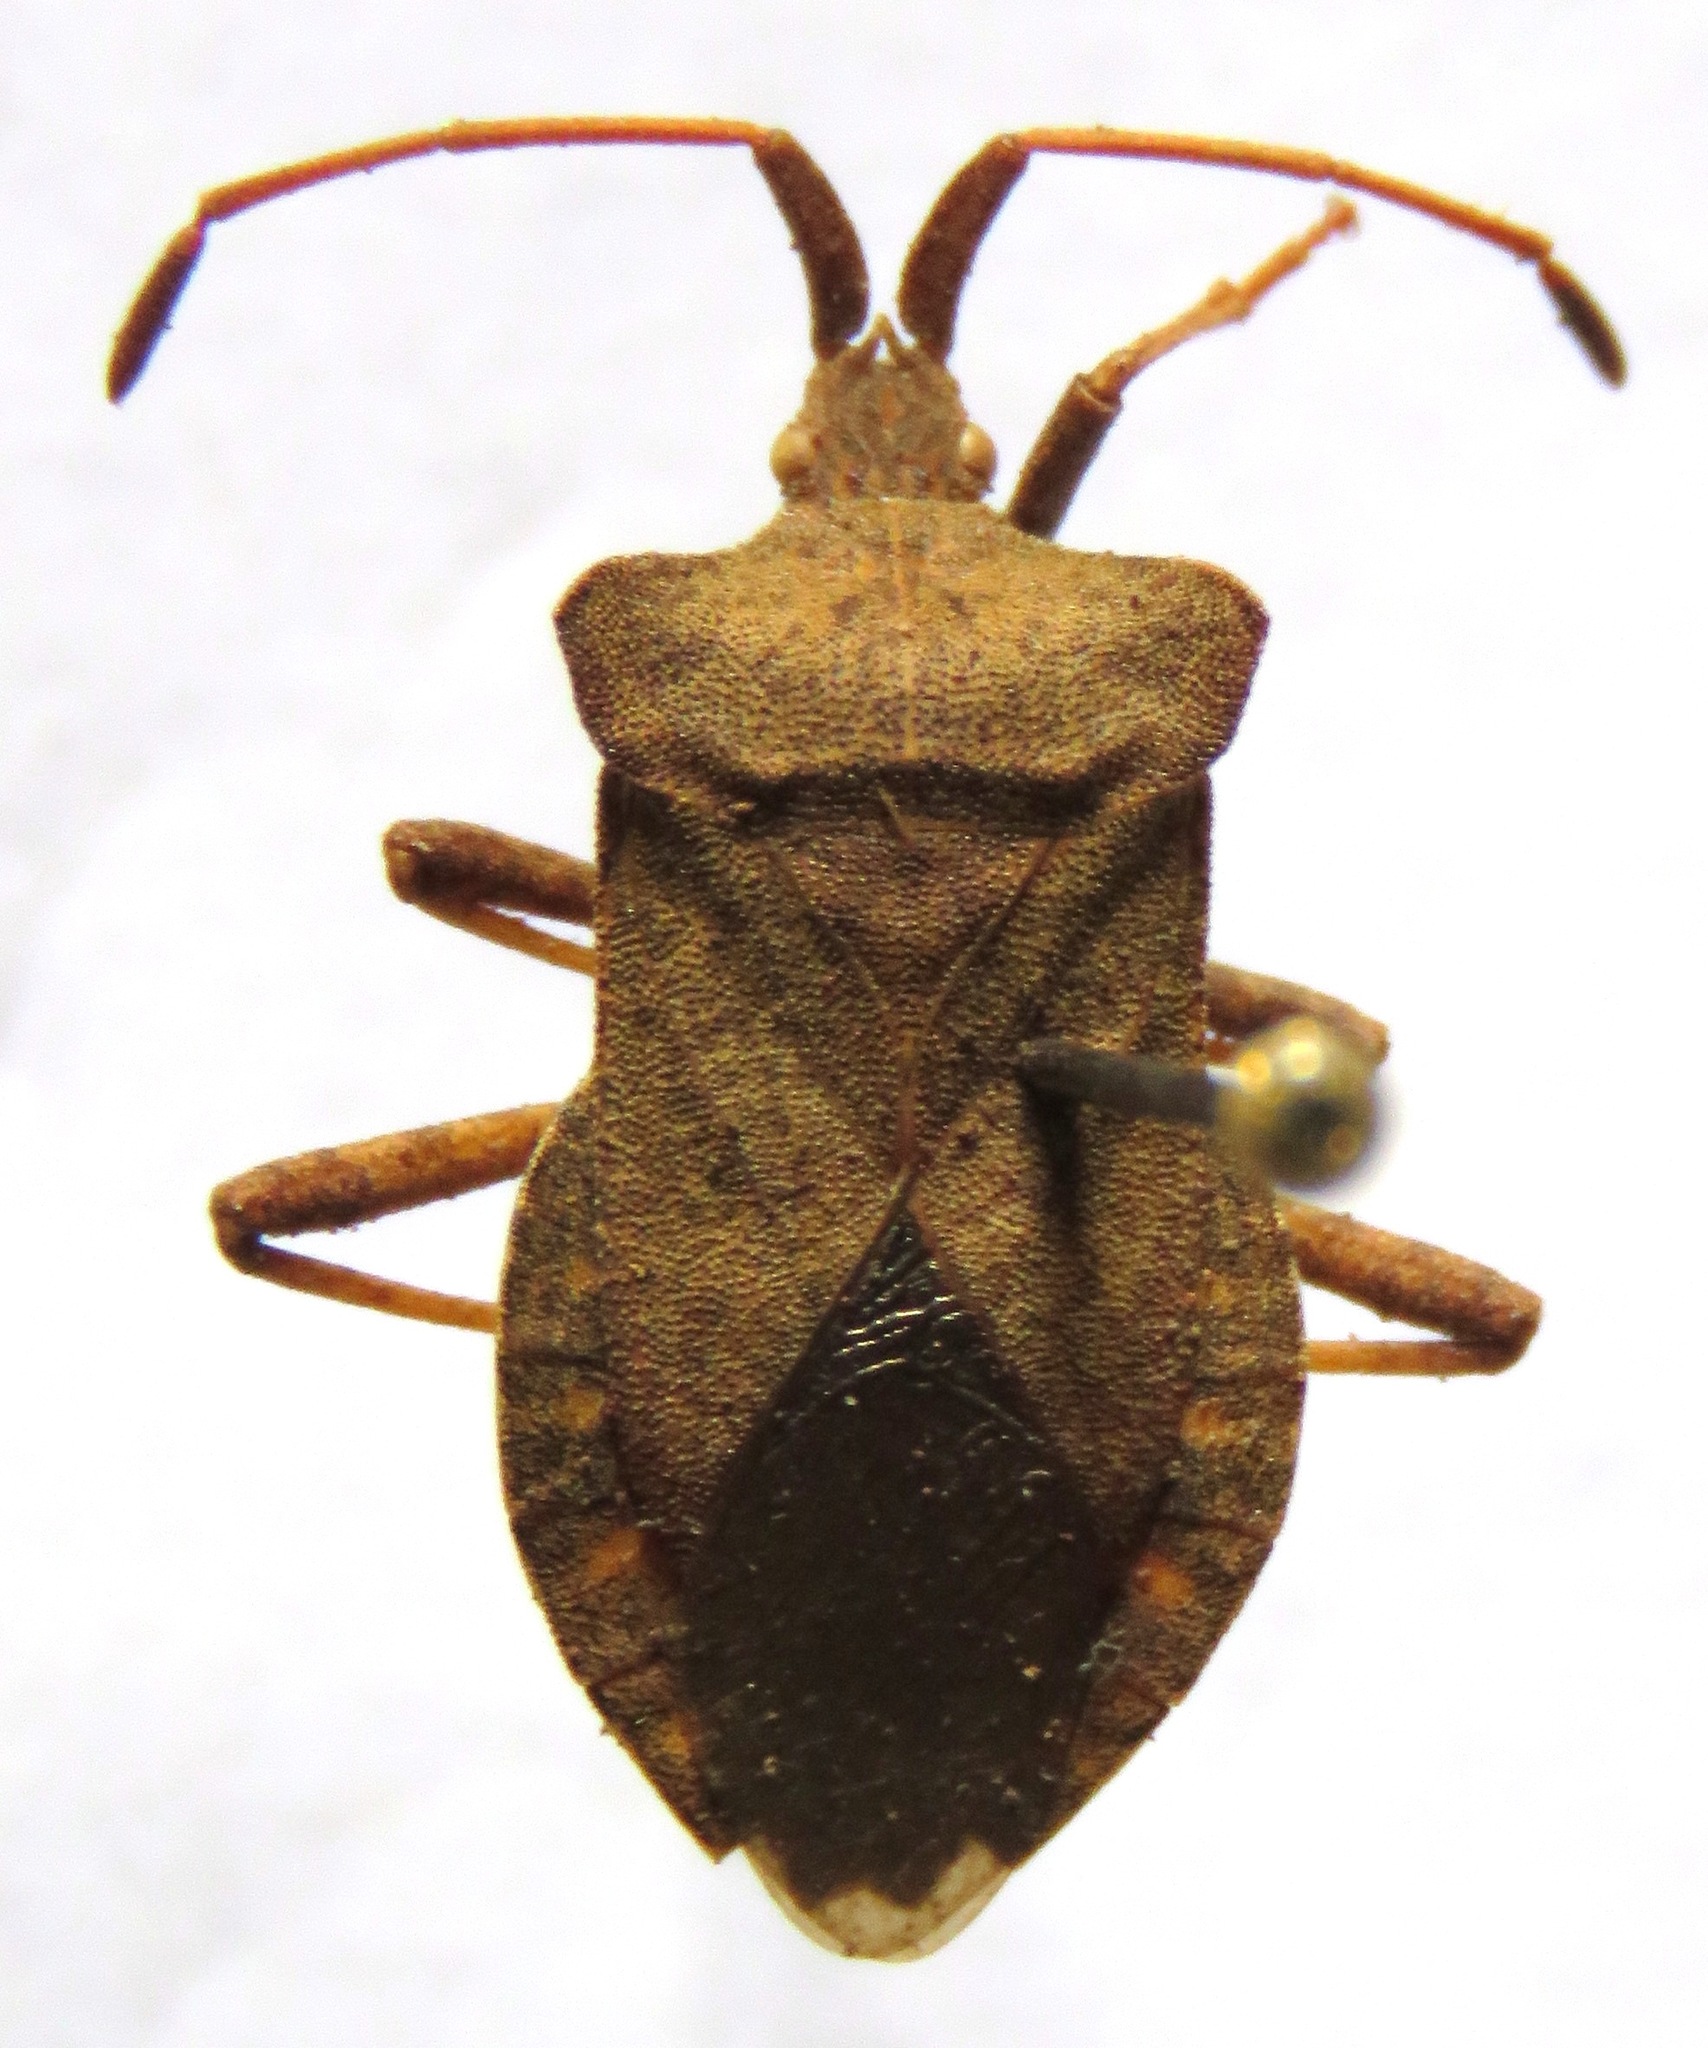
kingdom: Animalia
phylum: Arthropoda
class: Insecta
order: Hemiptera
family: Coreidae
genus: Coreus
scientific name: Coreus marginatus
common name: Dock bug
